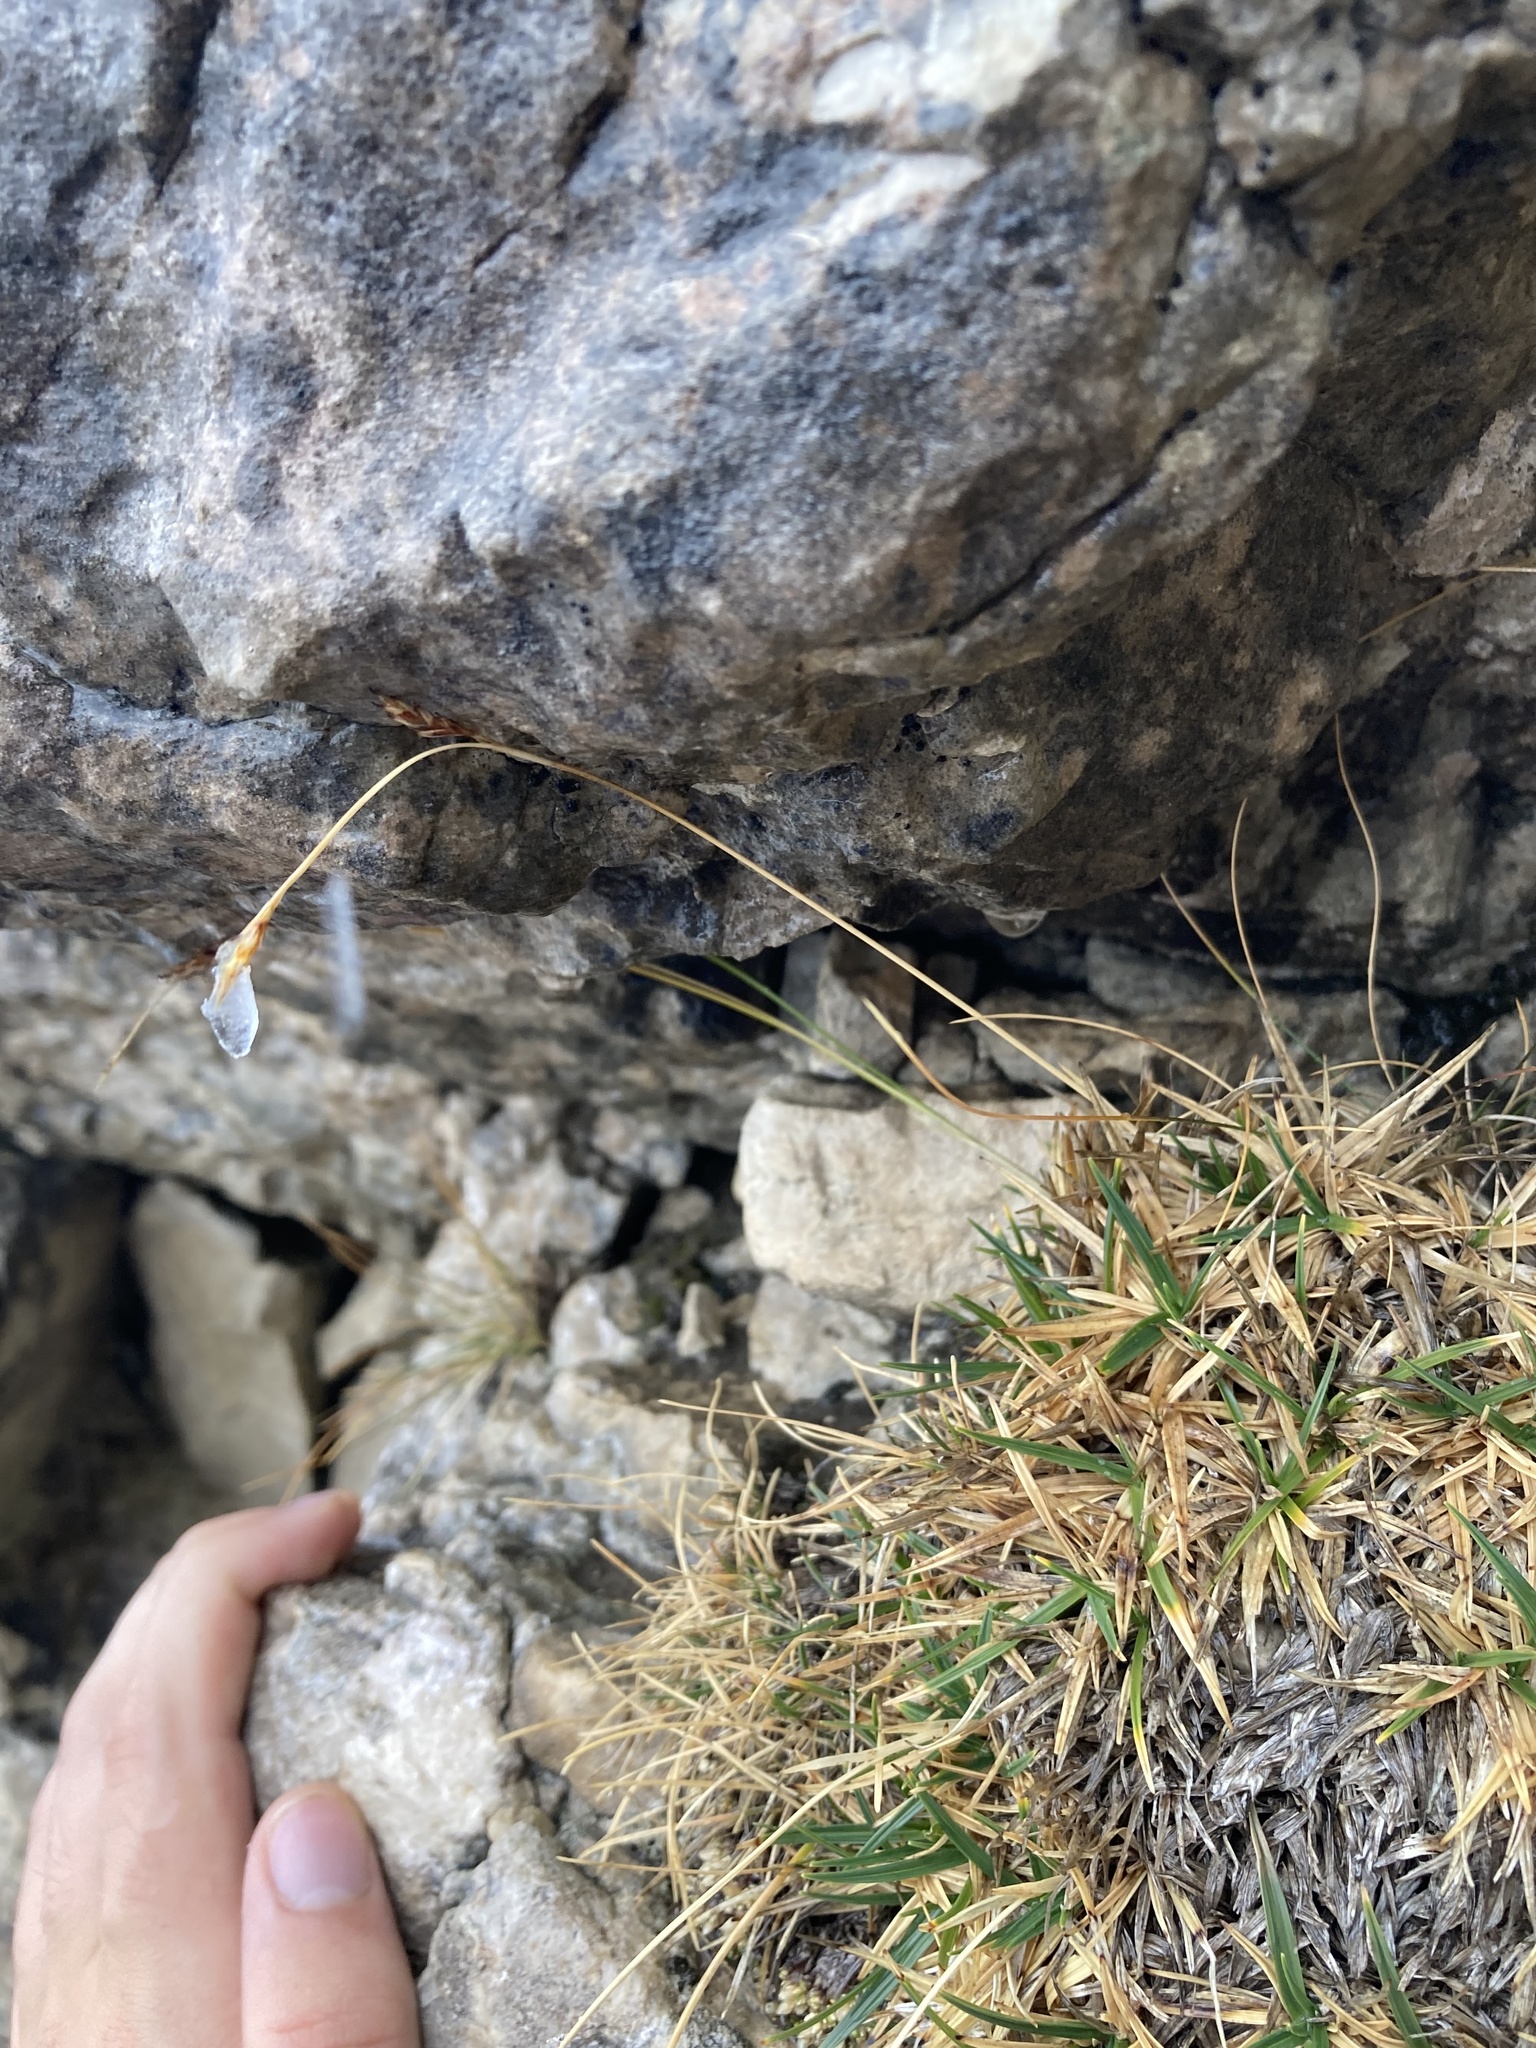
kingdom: Plantae
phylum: Tracheophyta
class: Liliopsida
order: Poales
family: Cyperaceae
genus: Carex
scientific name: Carex firma
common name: Dwarf pillow sedge
